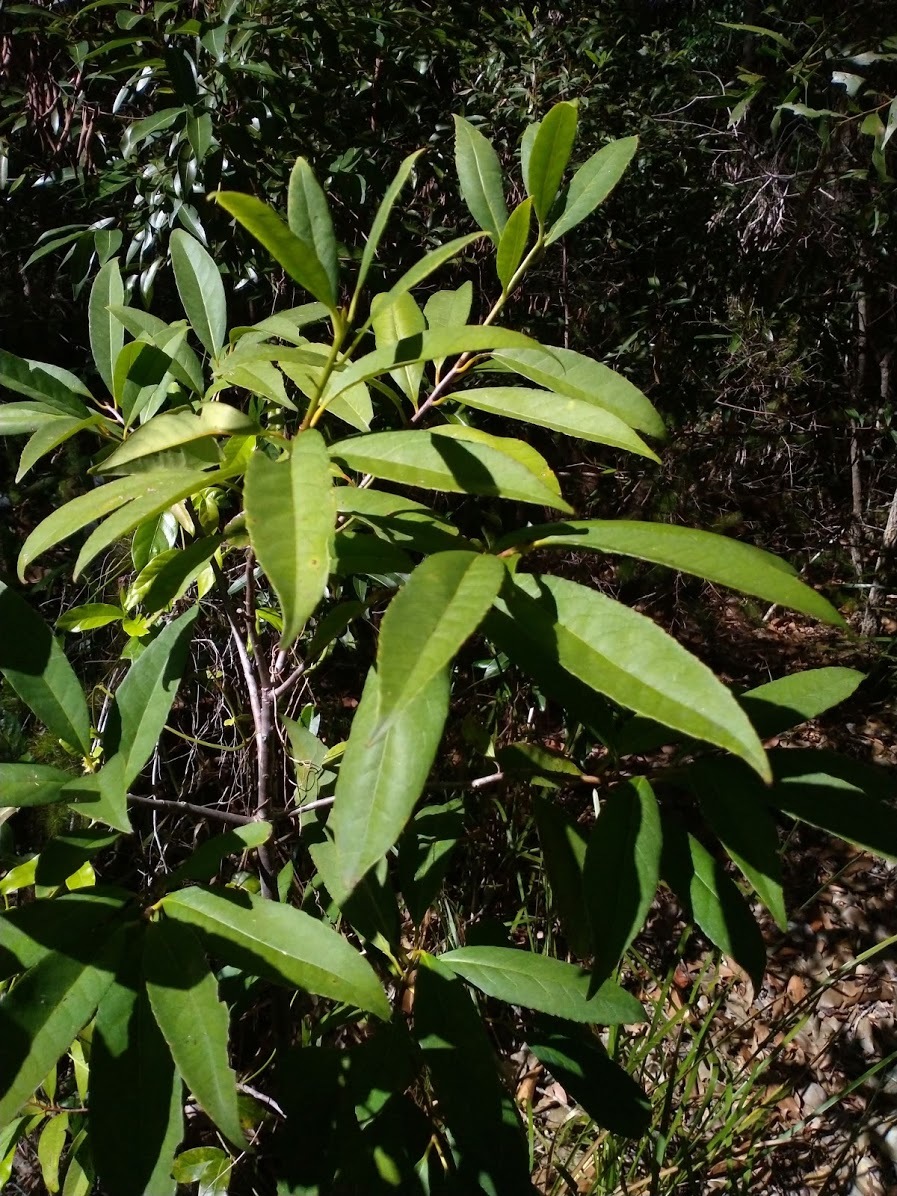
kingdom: Plantae
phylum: Tracheophyta
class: Magnoliopsida
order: Ericales
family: Symplocaceae
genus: Symplocos
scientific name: Symplocos thwaitesii
